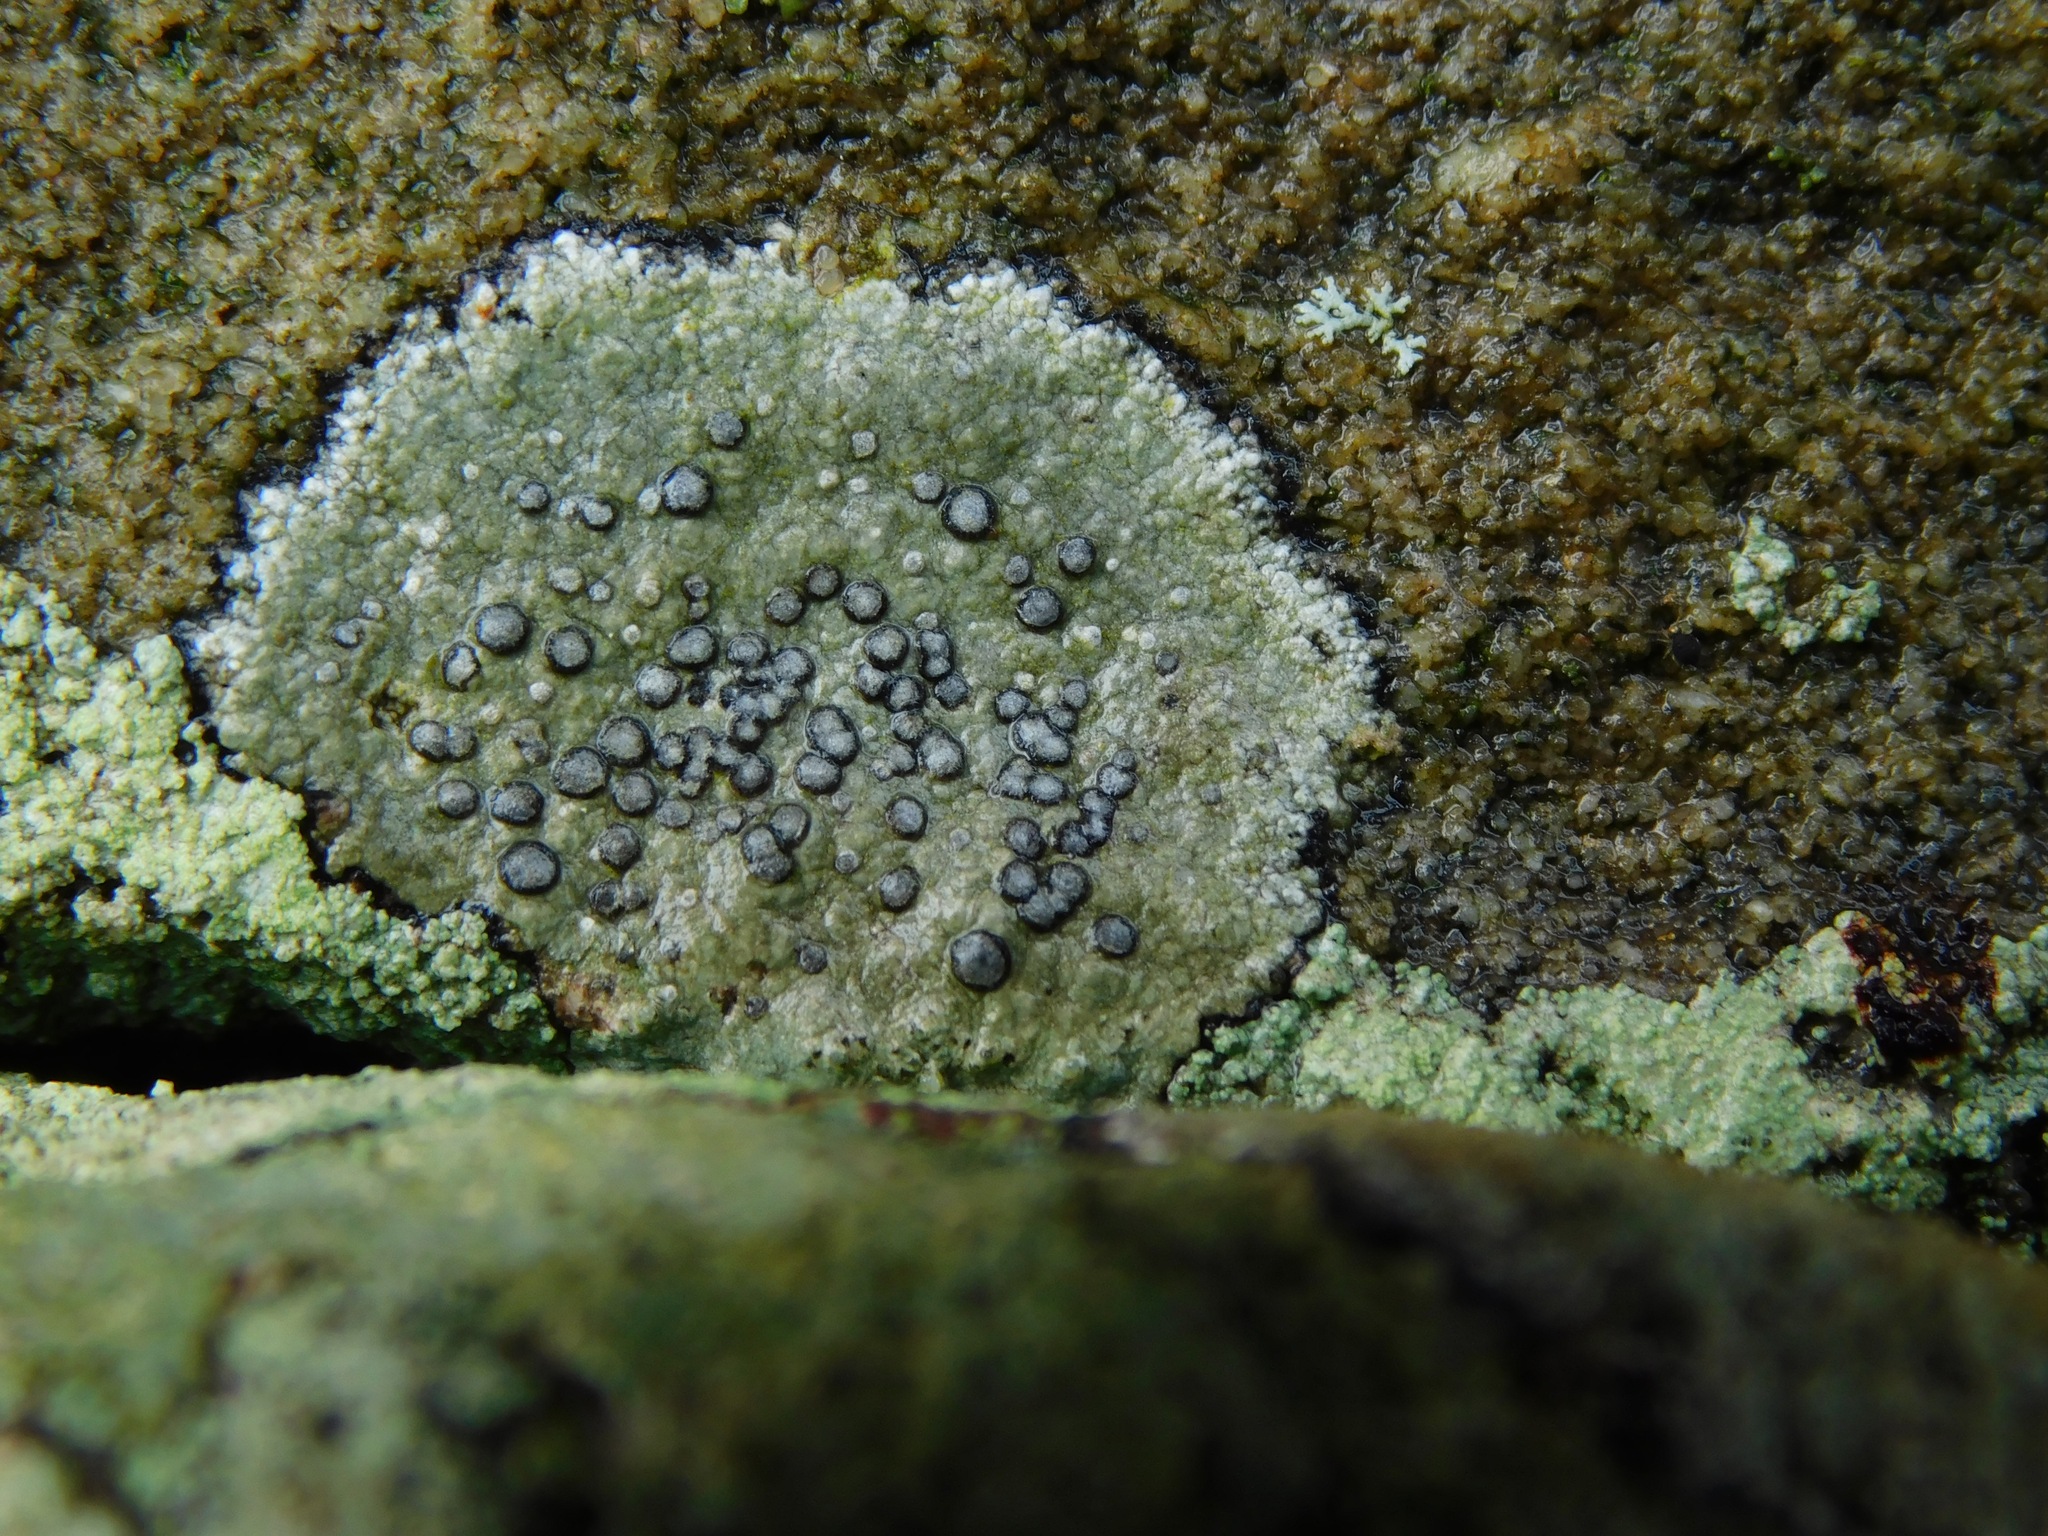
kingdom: Fungi
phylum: Ascomycota
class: Lecanoromycetes
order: Lecideales
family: Lecideaceae
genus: Porpidia
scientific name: Porpidia albocaerulescens
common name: Smokey-eyed boulder lichen
